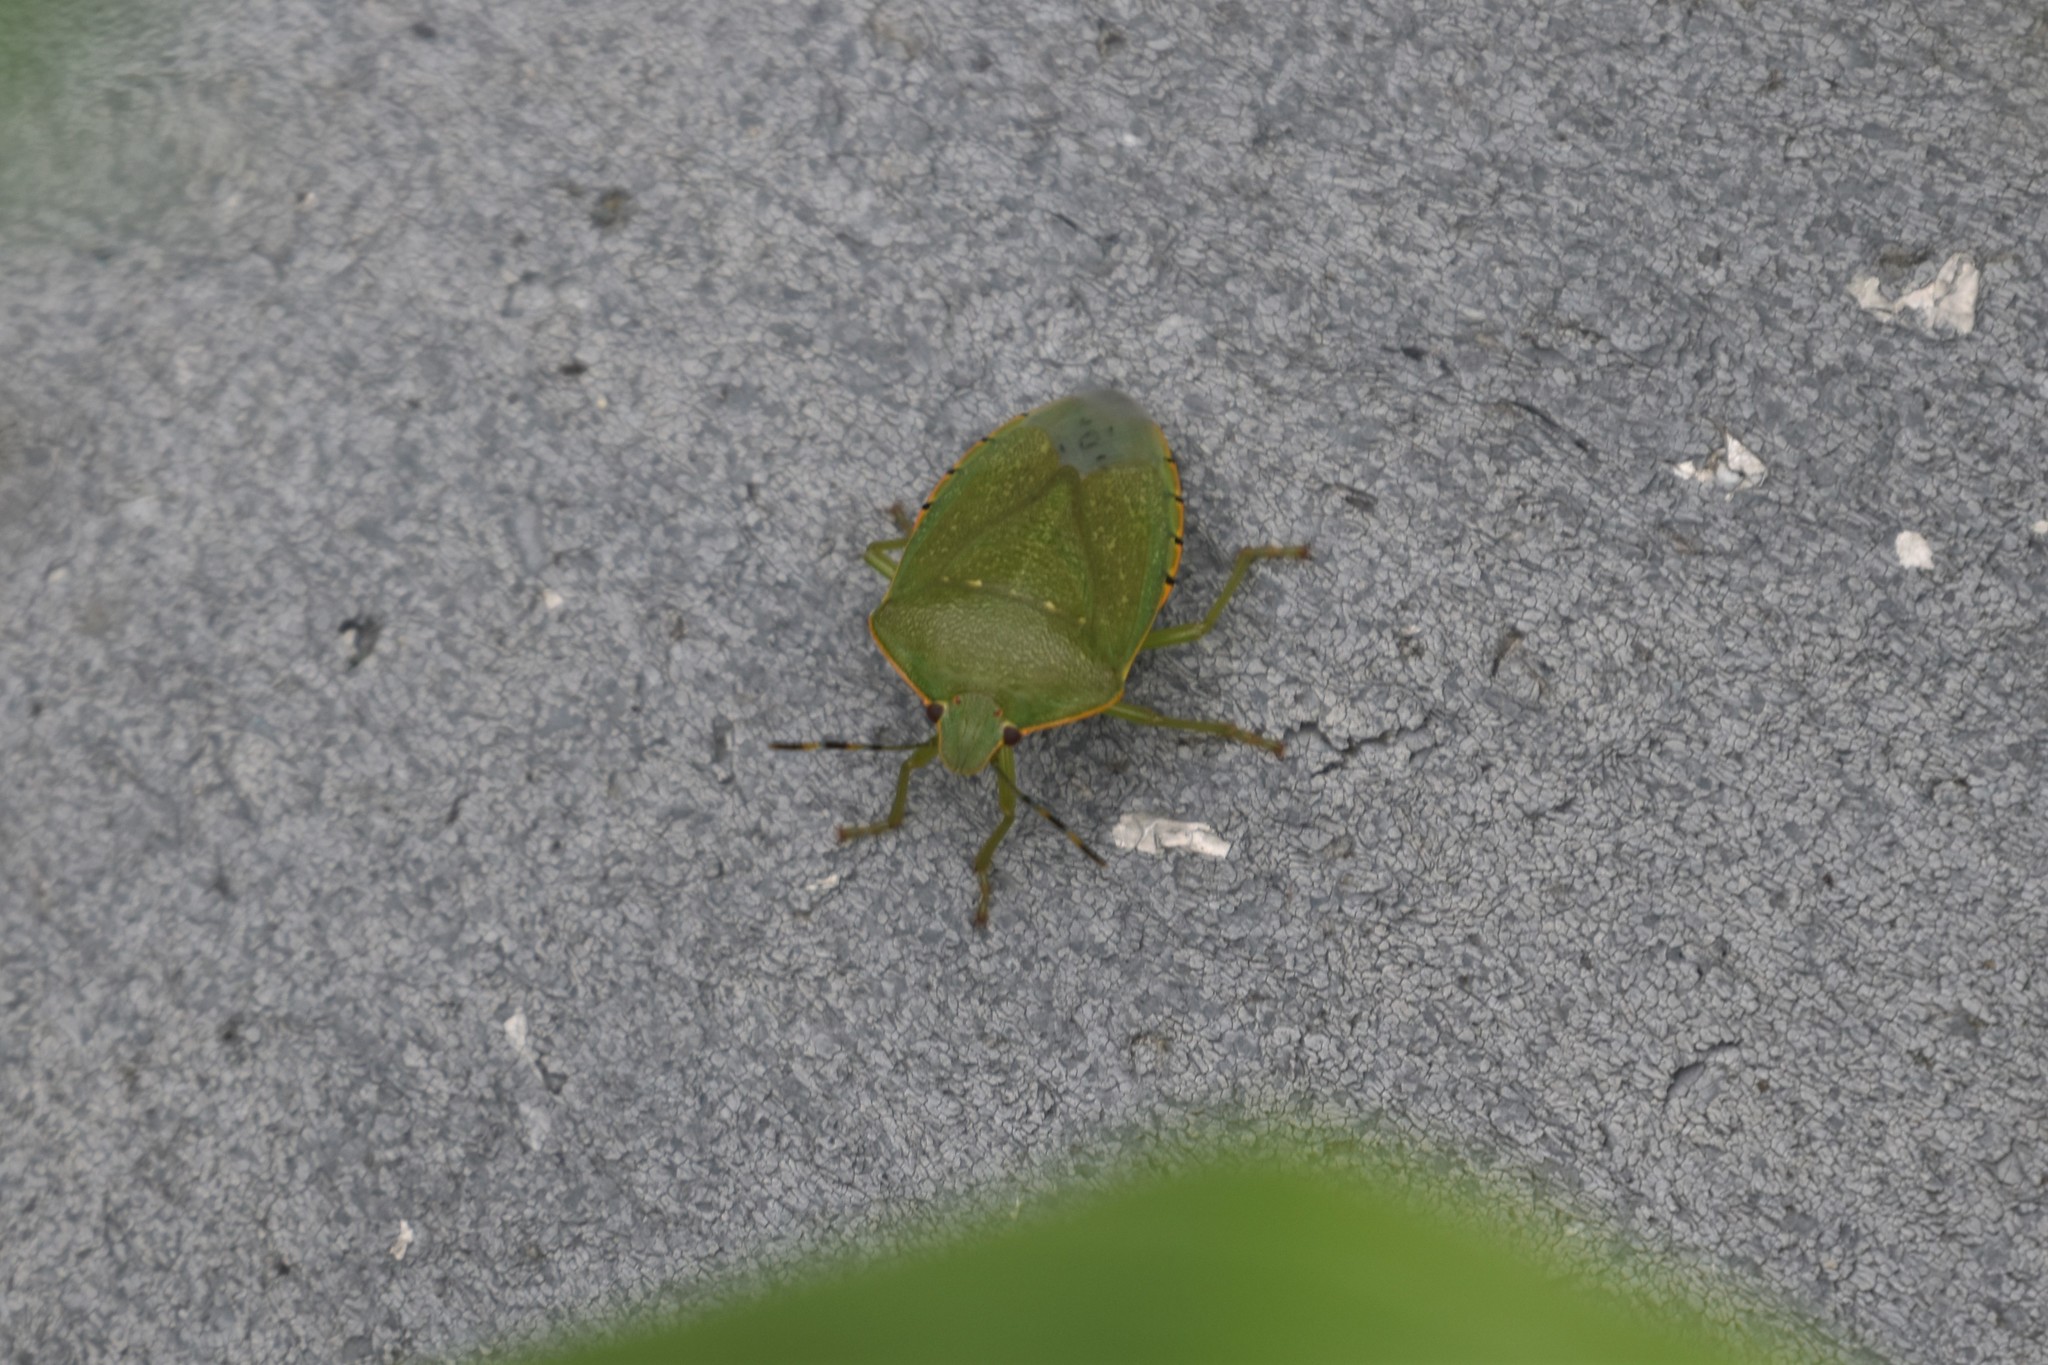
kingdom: Animalia
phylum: Arthropoda
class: Insecta
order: Hemiptera
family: Pentatomidae
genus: Chinavia
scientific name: Chinavia hilaris
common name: Green stink bug
